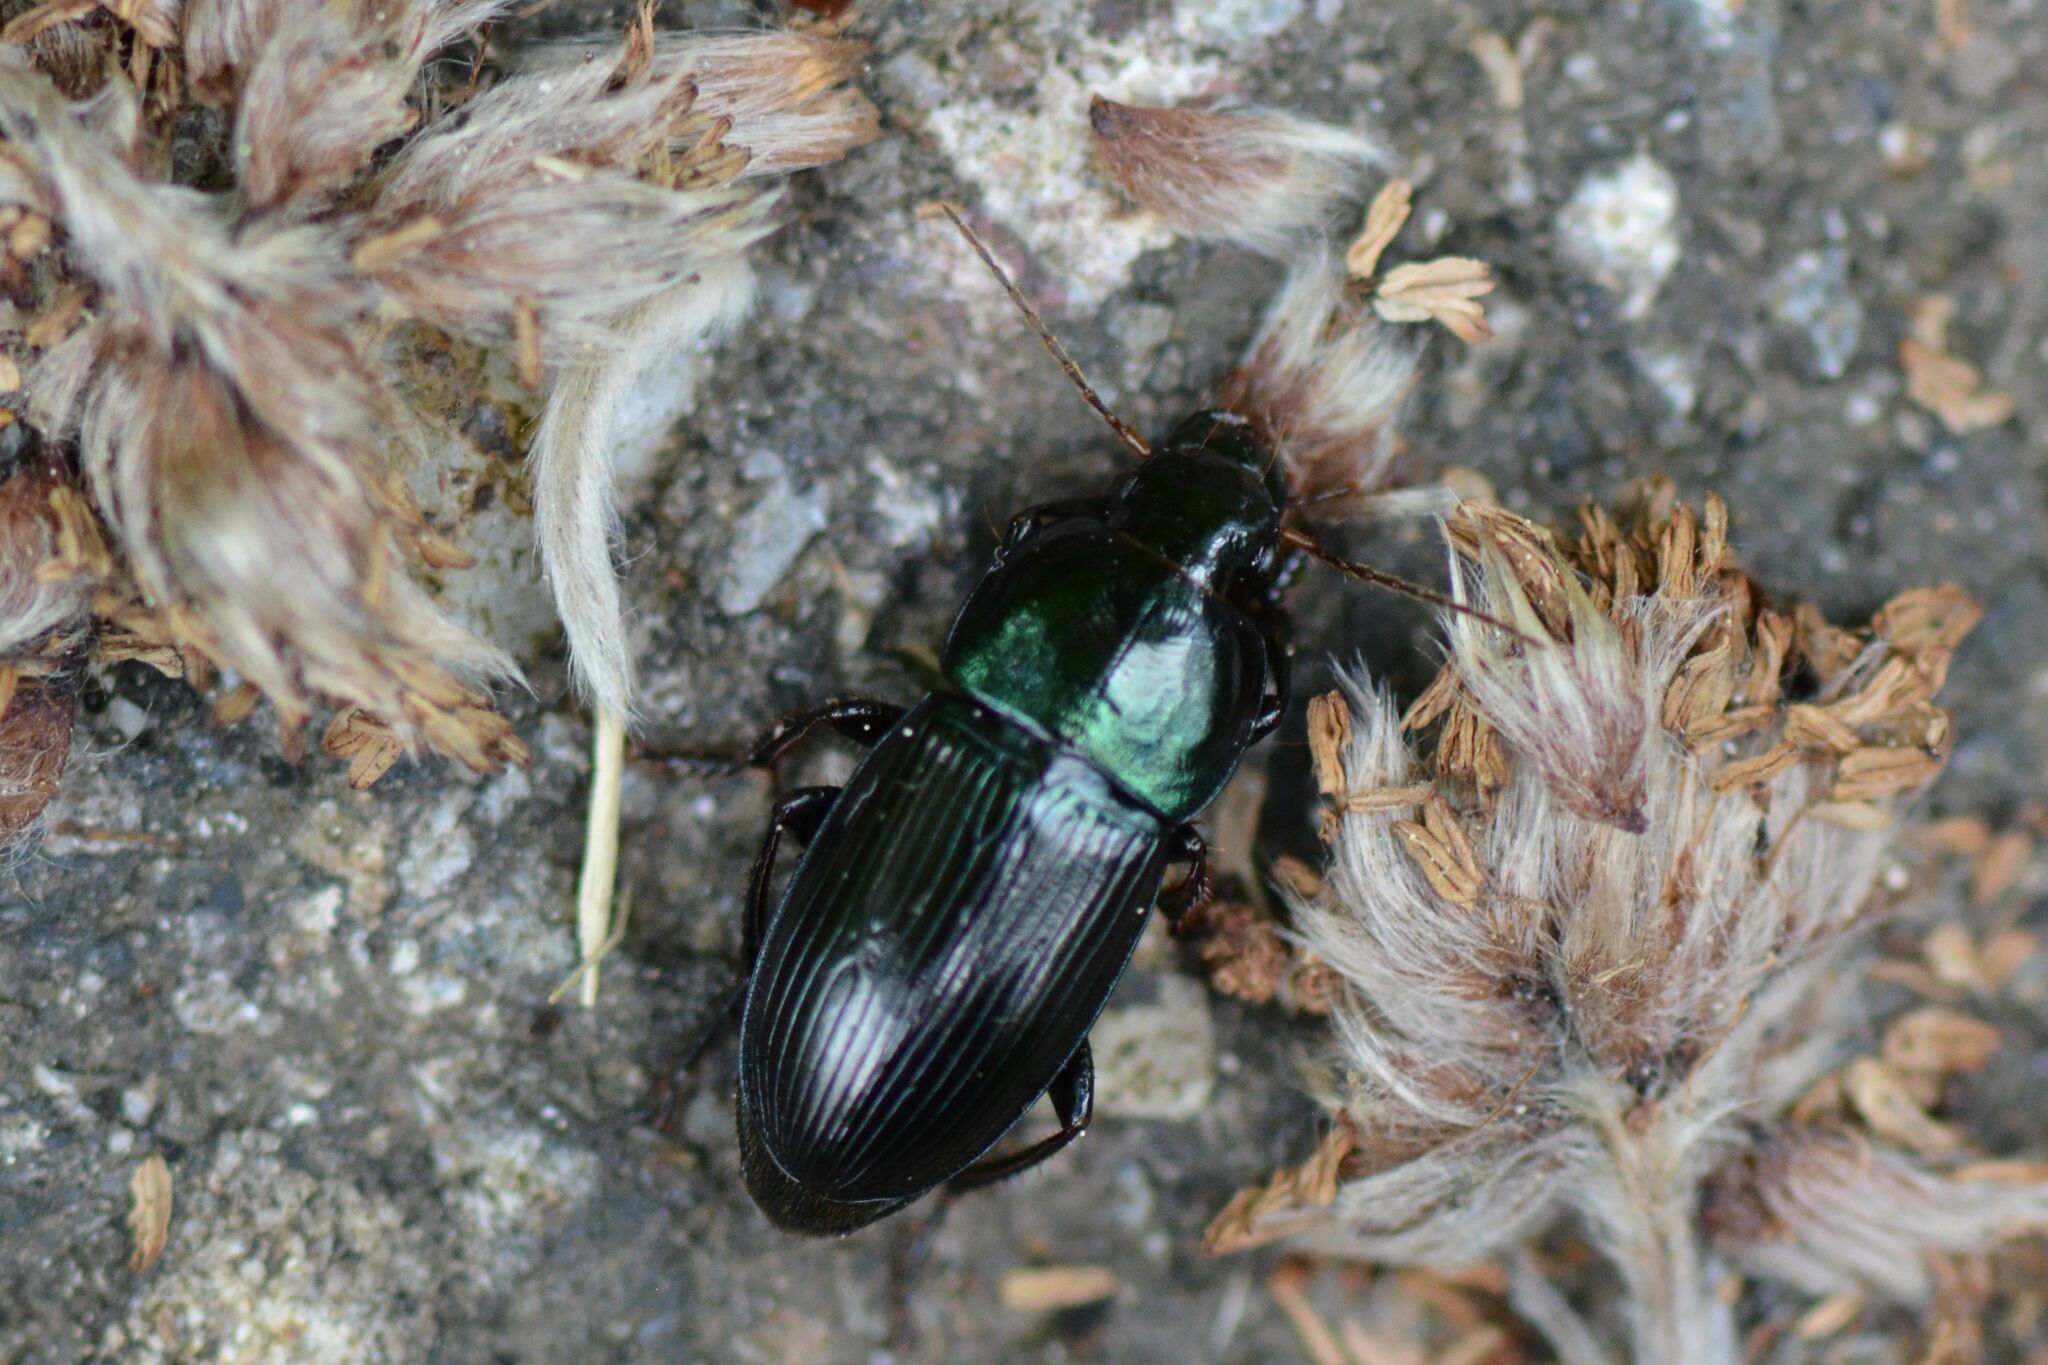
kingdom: Animalia
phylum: Arthropoda
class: Insecta
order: Coleoptera
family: Carabidae
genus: Harpalus
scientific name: Harpalus dimidiatus
